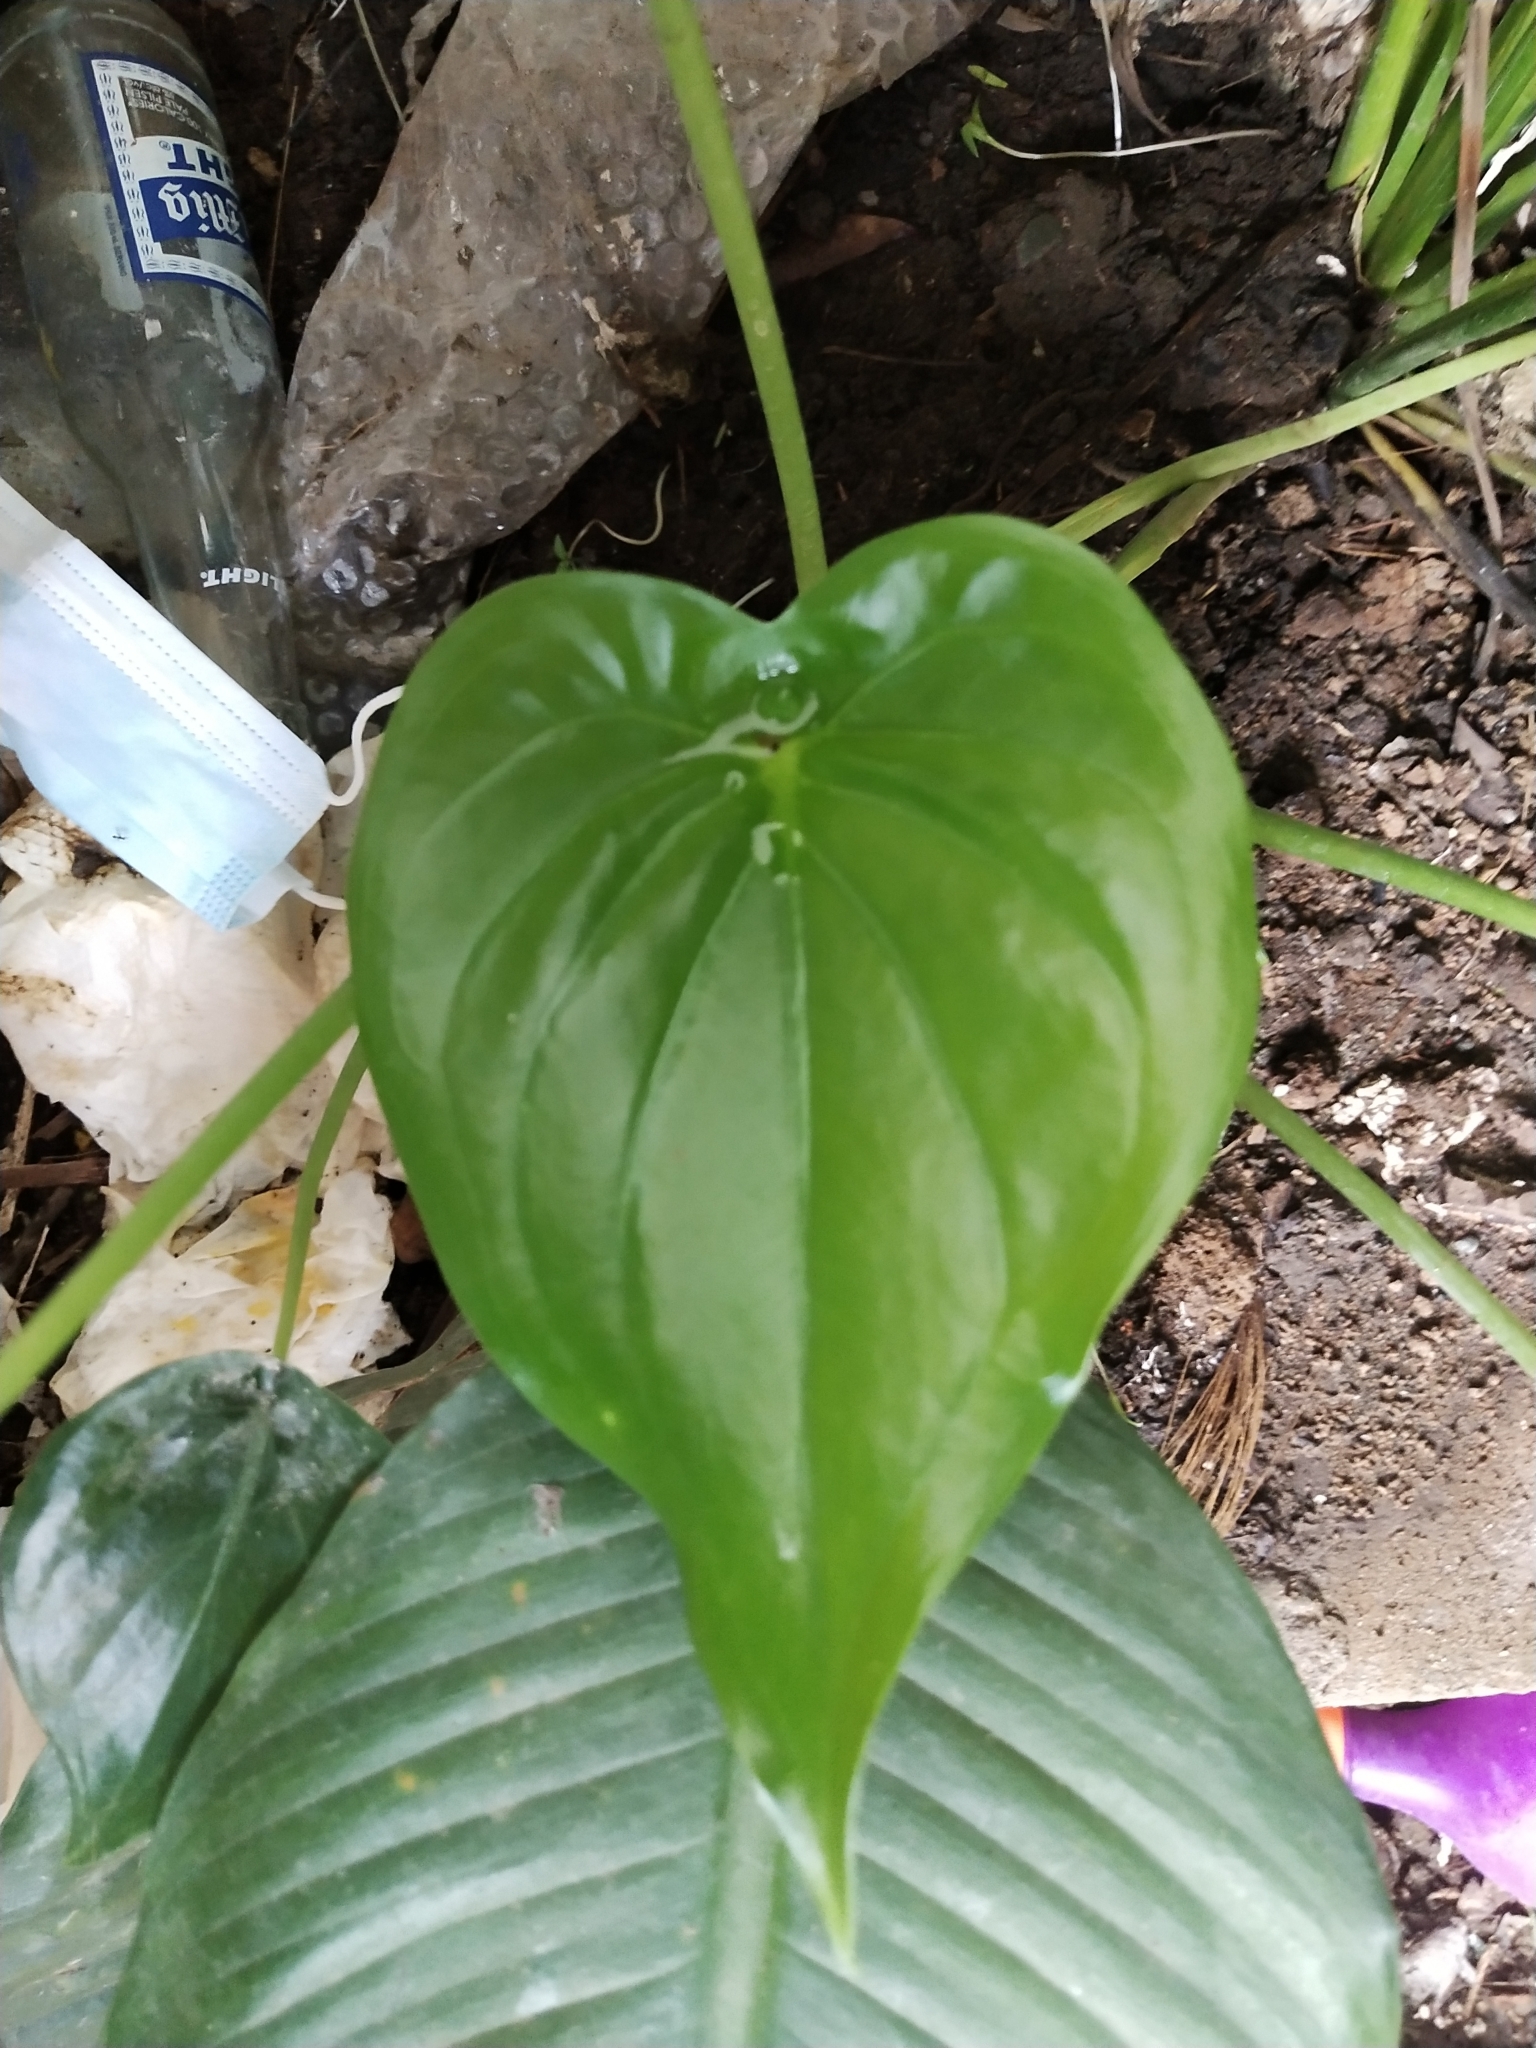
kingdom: Plantae
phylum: Tracheophyta
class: Liliopsida
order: Alismatales
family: Araceae
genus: Alocasia
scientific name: Alocasia cucullata
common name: Buddha's hand
